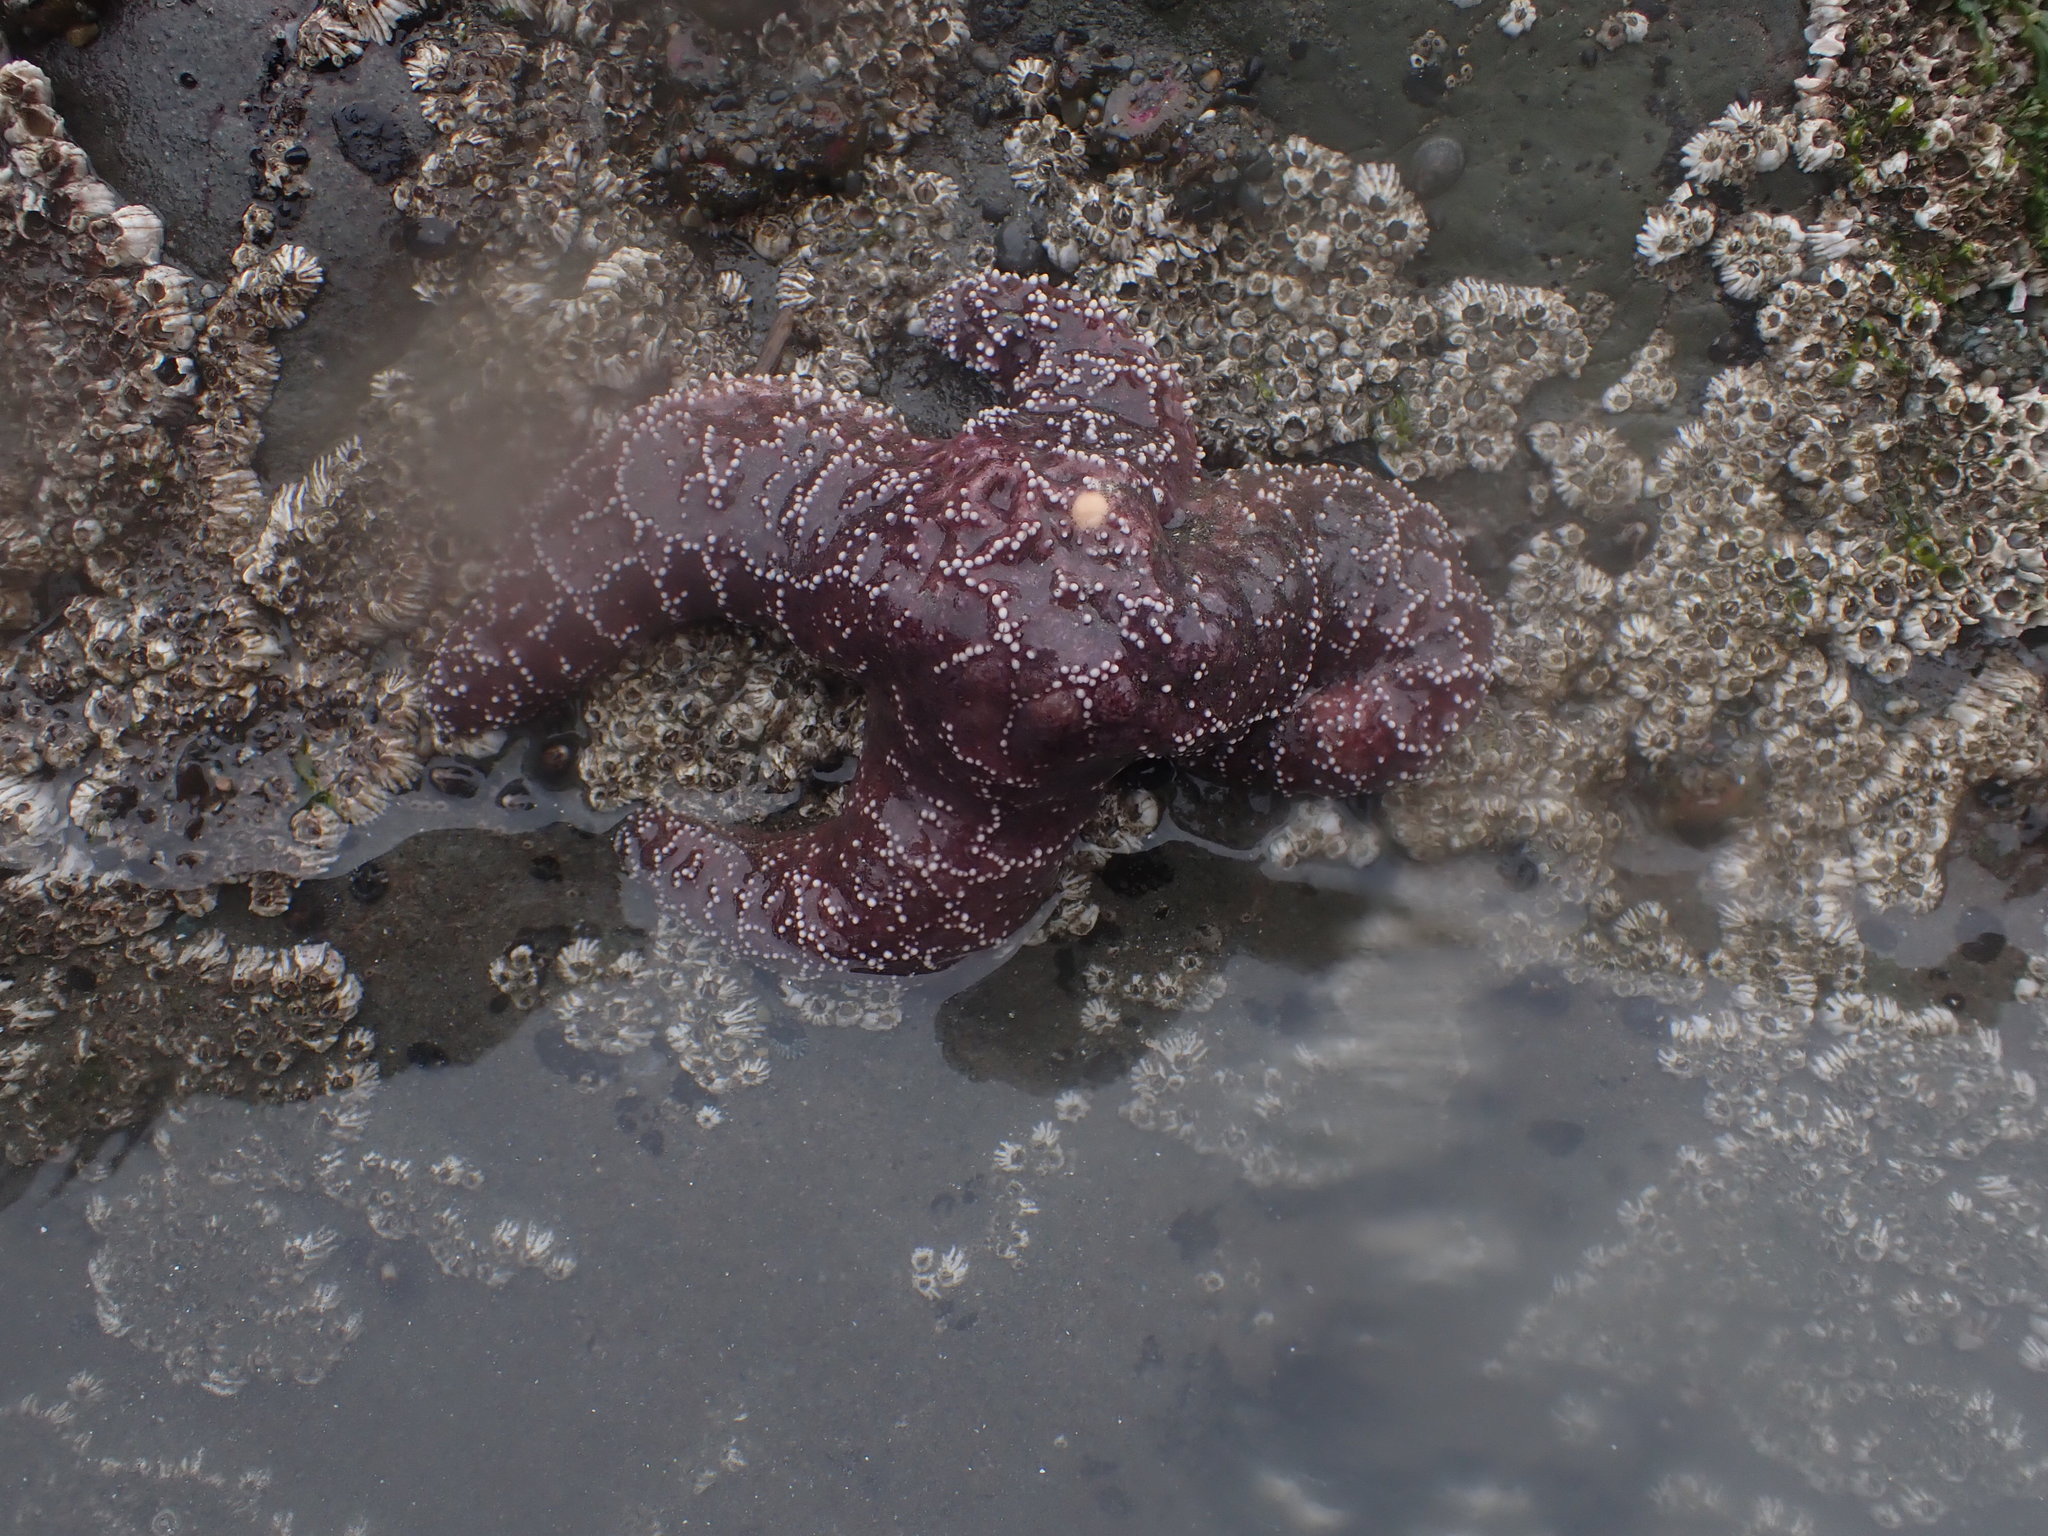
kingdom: Animalia
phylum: Echinodermata
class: Asteroidea
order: Forcipulatida
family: Asteriidae
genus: Pisaster
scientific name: Pisaster ochraceus
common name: Ochre stars
